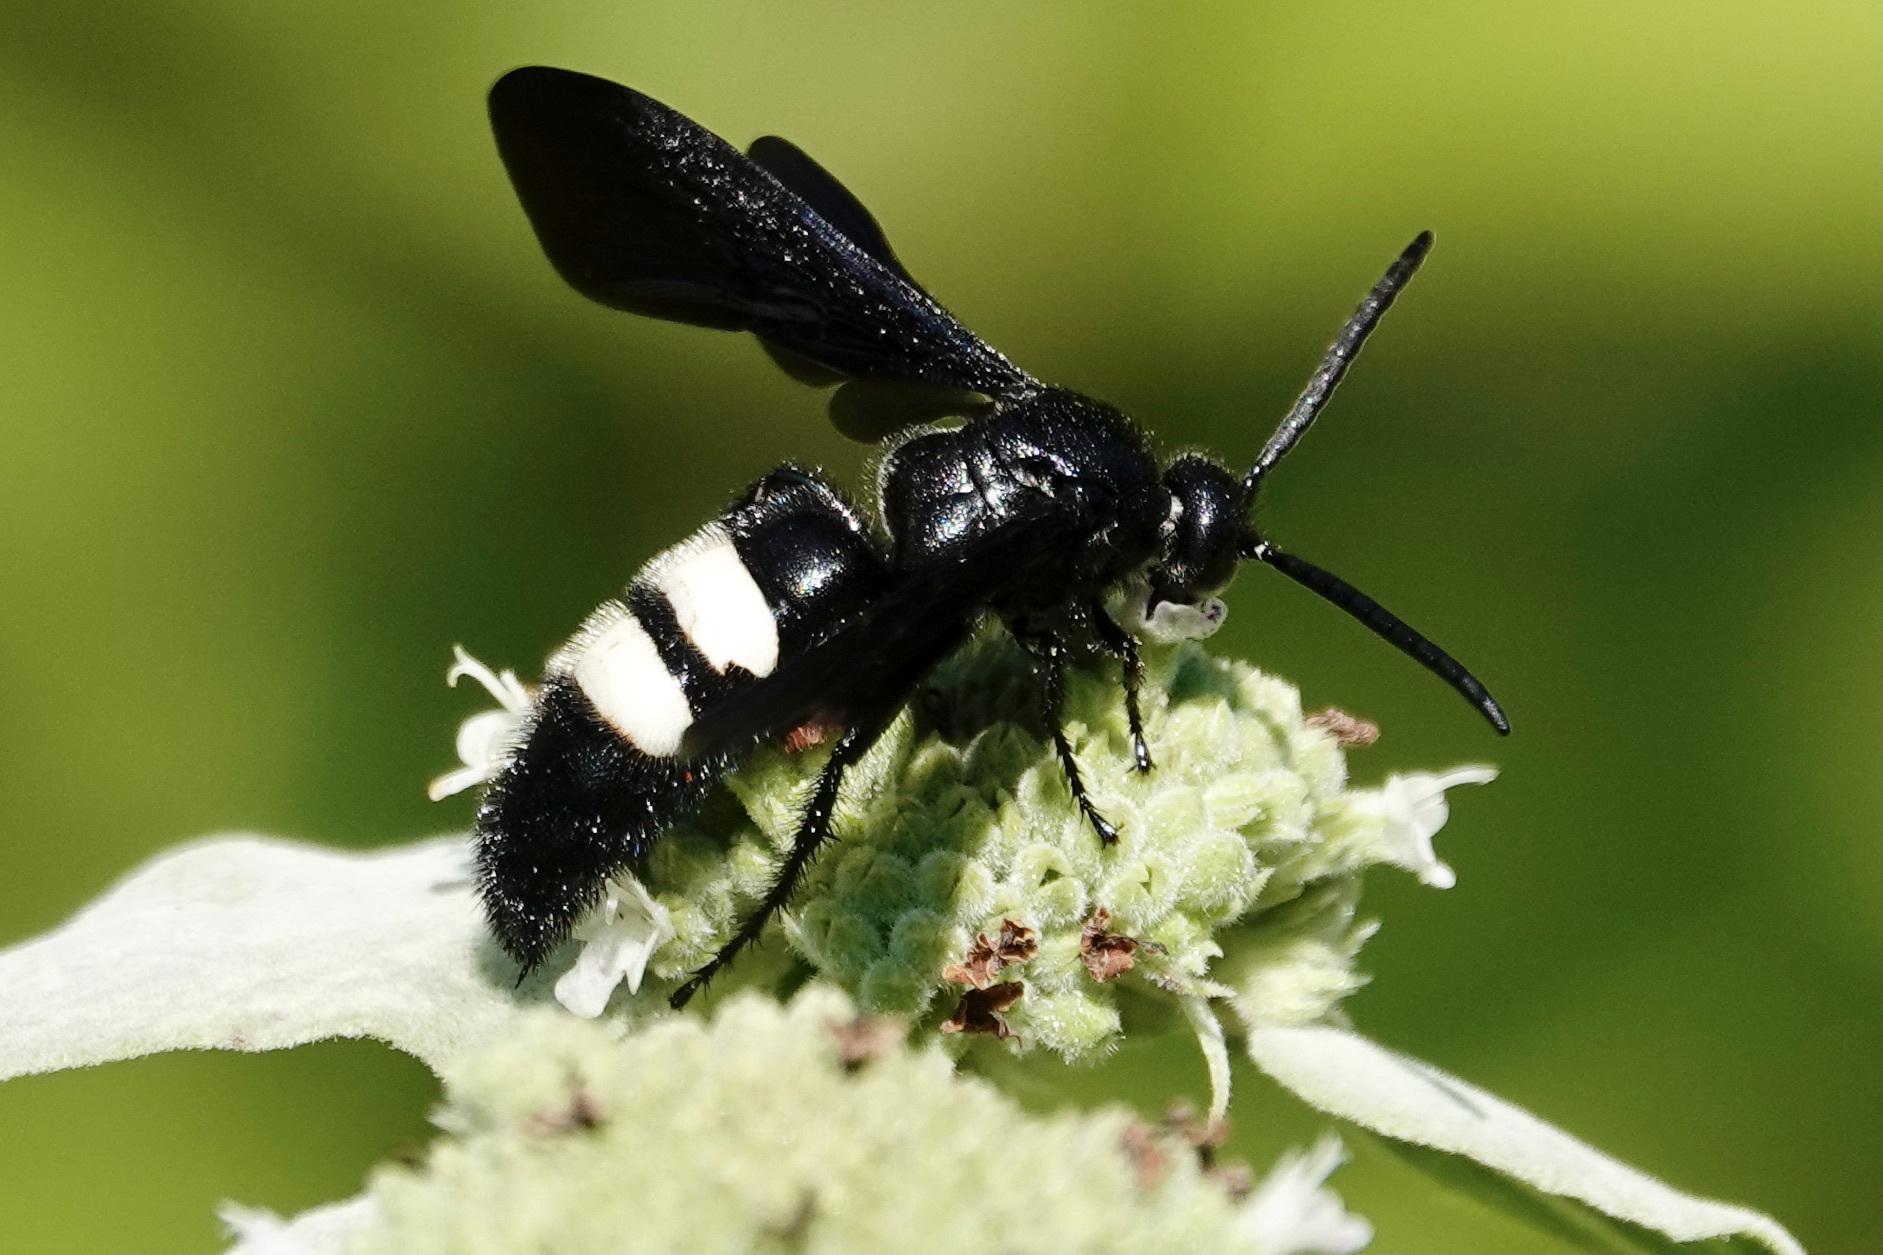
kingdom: Animalia
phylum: Arthropoda
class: Insecta
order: Hymenoptera
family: Scoliidae
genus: Scolia
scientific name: Scolia bicincta
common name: Double-banded scoliid wasp
